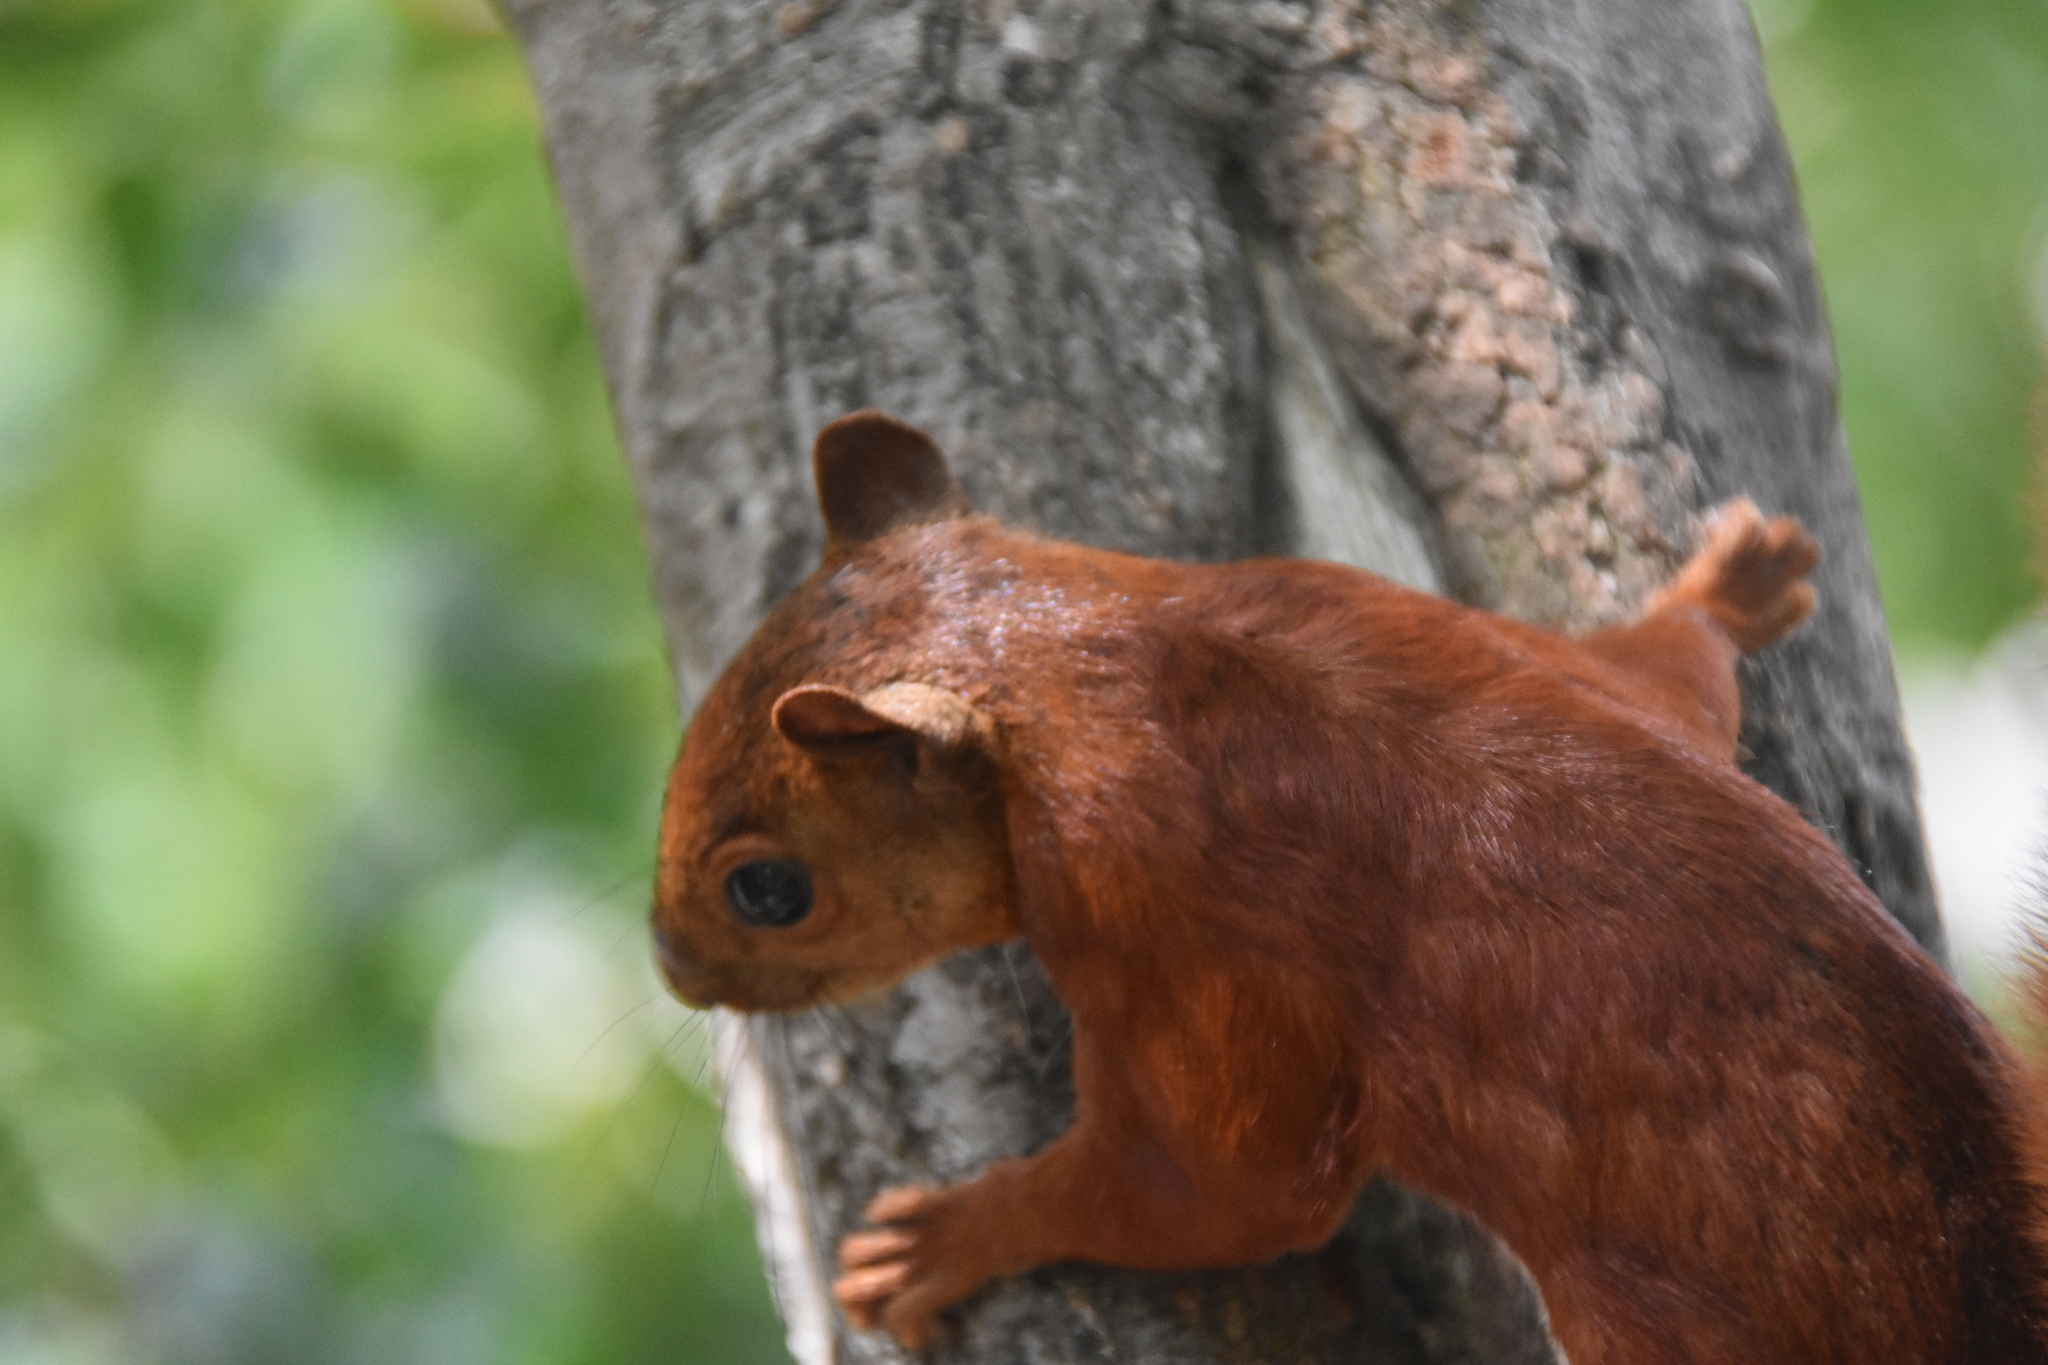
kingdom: Animalia
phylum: Chordata
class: Mammalia
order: Rodentia
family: Sciuridae
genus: Sciurus
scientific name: Sciurus granatensis
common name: Red-tailed squirrel
